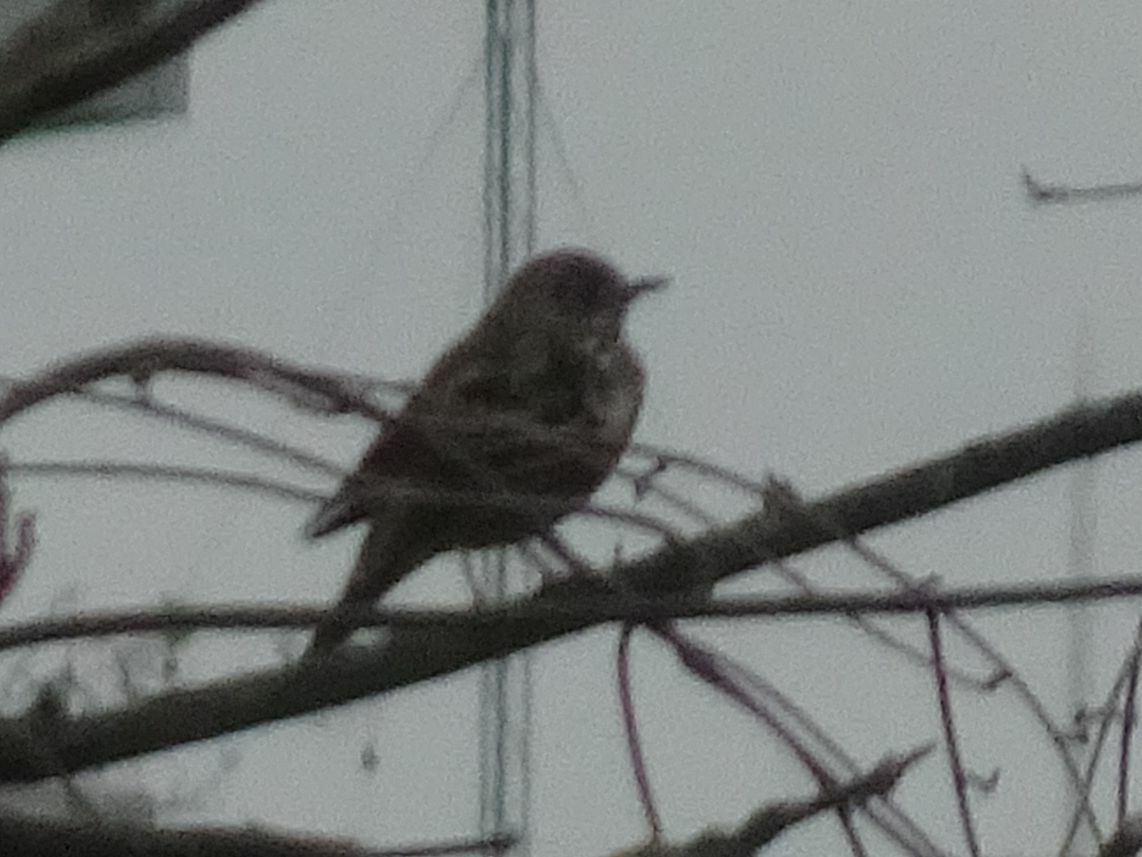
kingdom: Animalia
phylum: Chordata
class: Aves
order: Passeriformes
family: Turdidae
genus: Turdus
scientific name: Turdus viscivorus
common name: Mistle thrush
